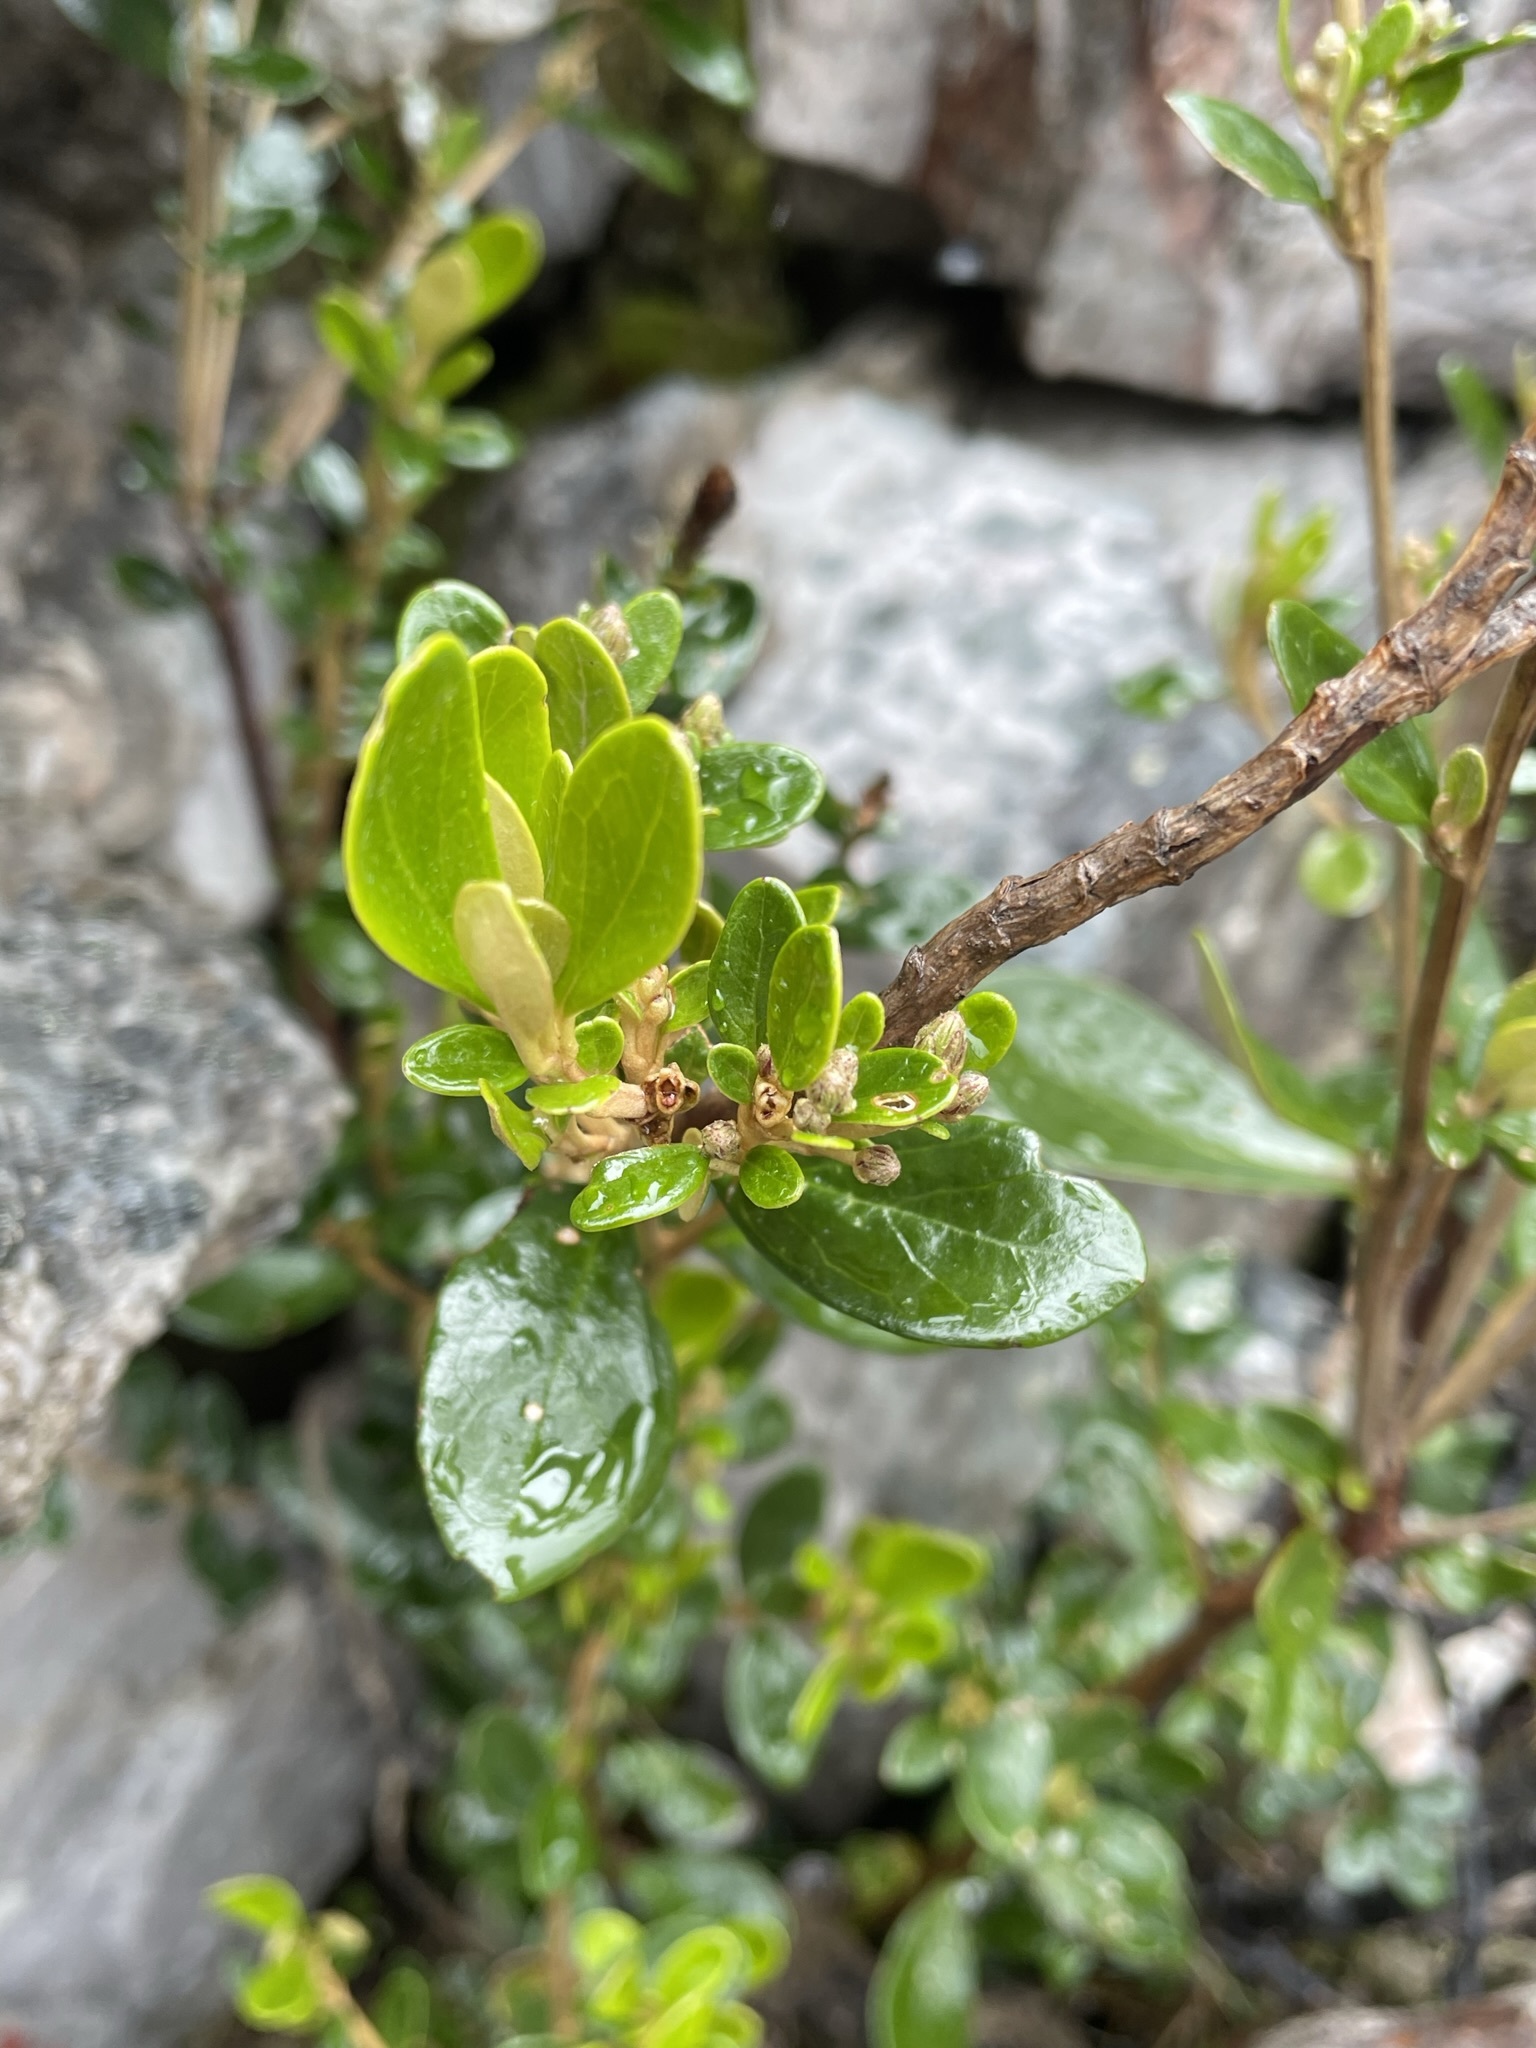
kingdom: Plantae
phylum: Tracheophyta
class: Magnoliopsida
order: Asterales
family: Asteraceae
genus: Olearia
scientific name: Olearia persoonioides
